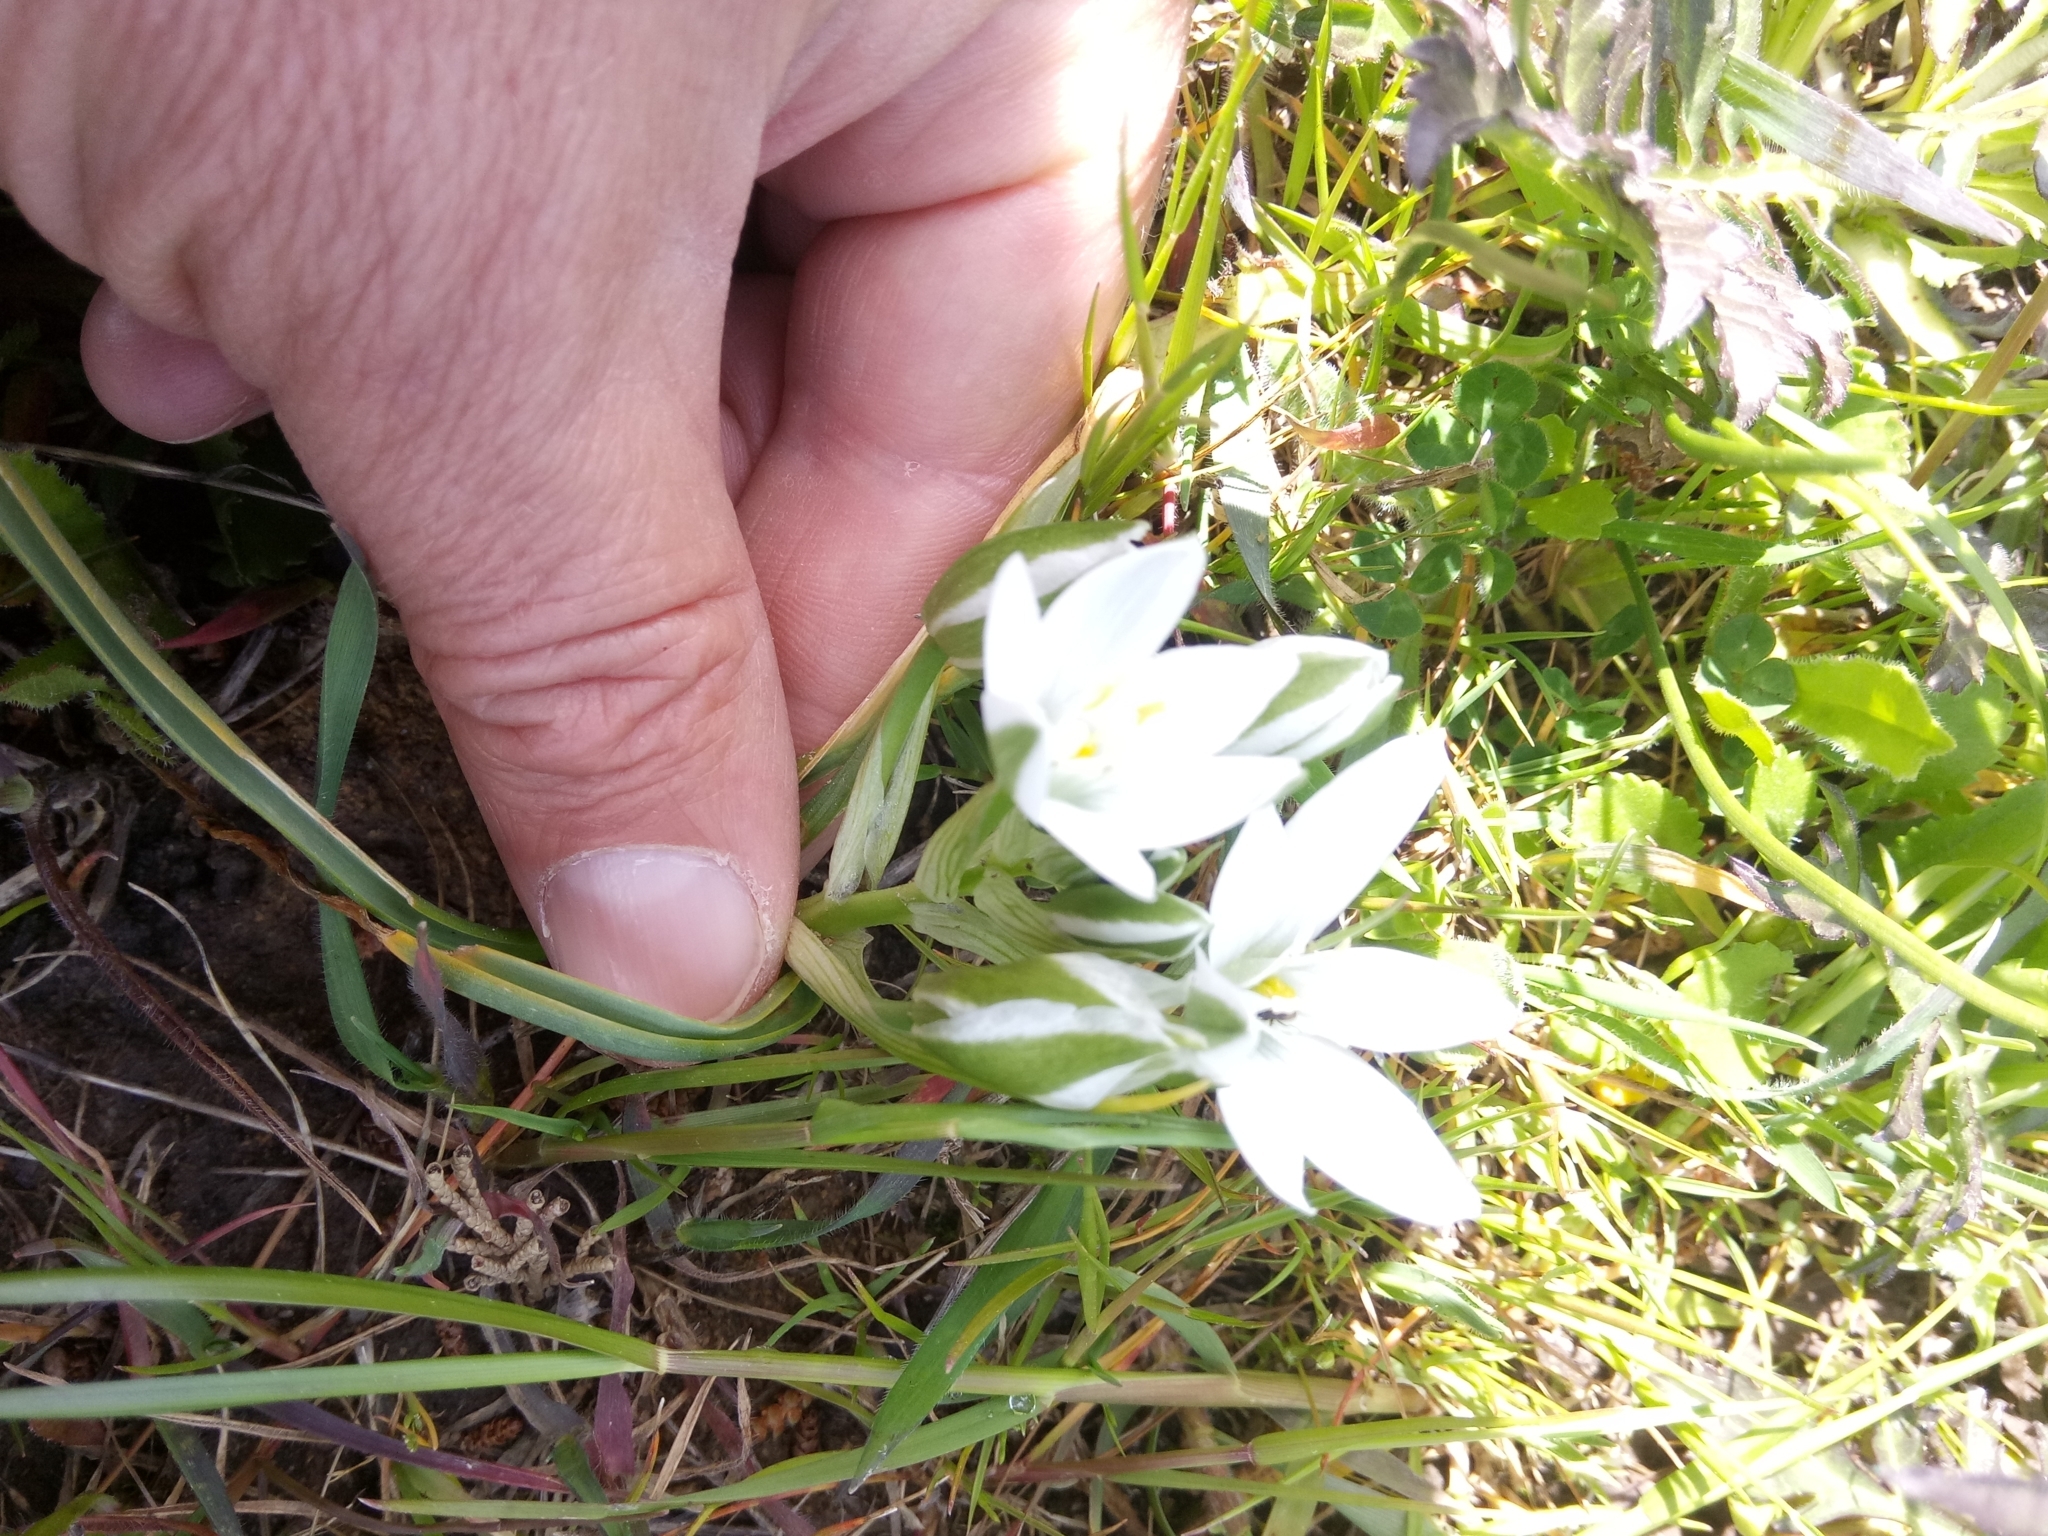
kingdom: Plantae
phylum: Tracheophyta
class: Liliopsida
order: Asparagales
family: Asparagaceae
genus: Ornithogalum
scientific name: Ornithogalum baeticum
